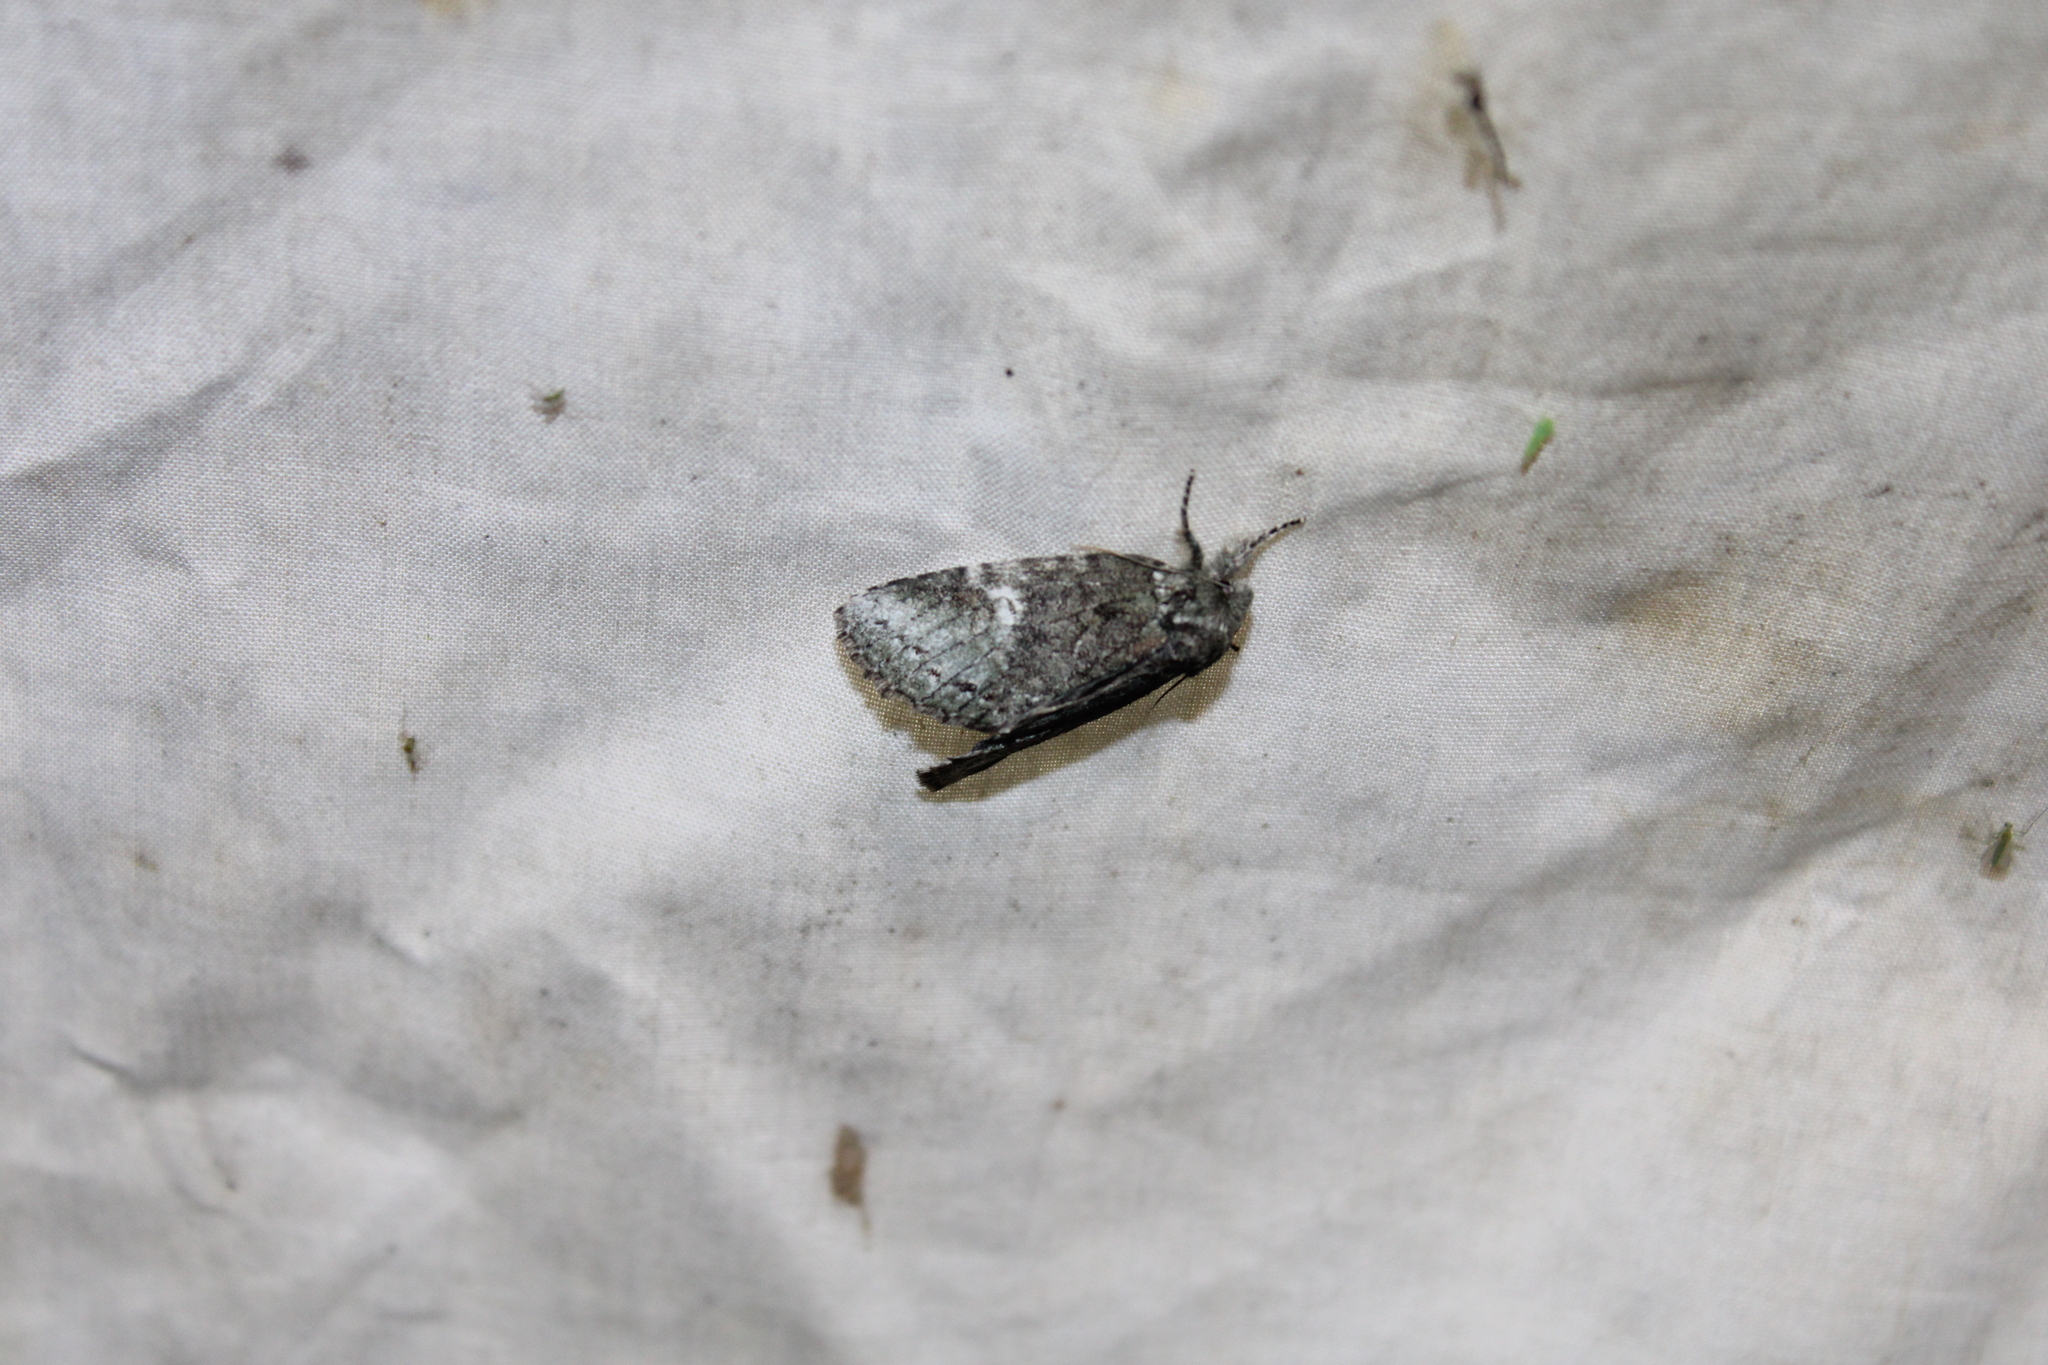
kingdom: Animalia
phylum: Arthropoda
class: Insecta
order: Lepidoptera
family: Notodontidae
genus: Disphragis
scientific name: Disphragis Cecrita guttivitta
